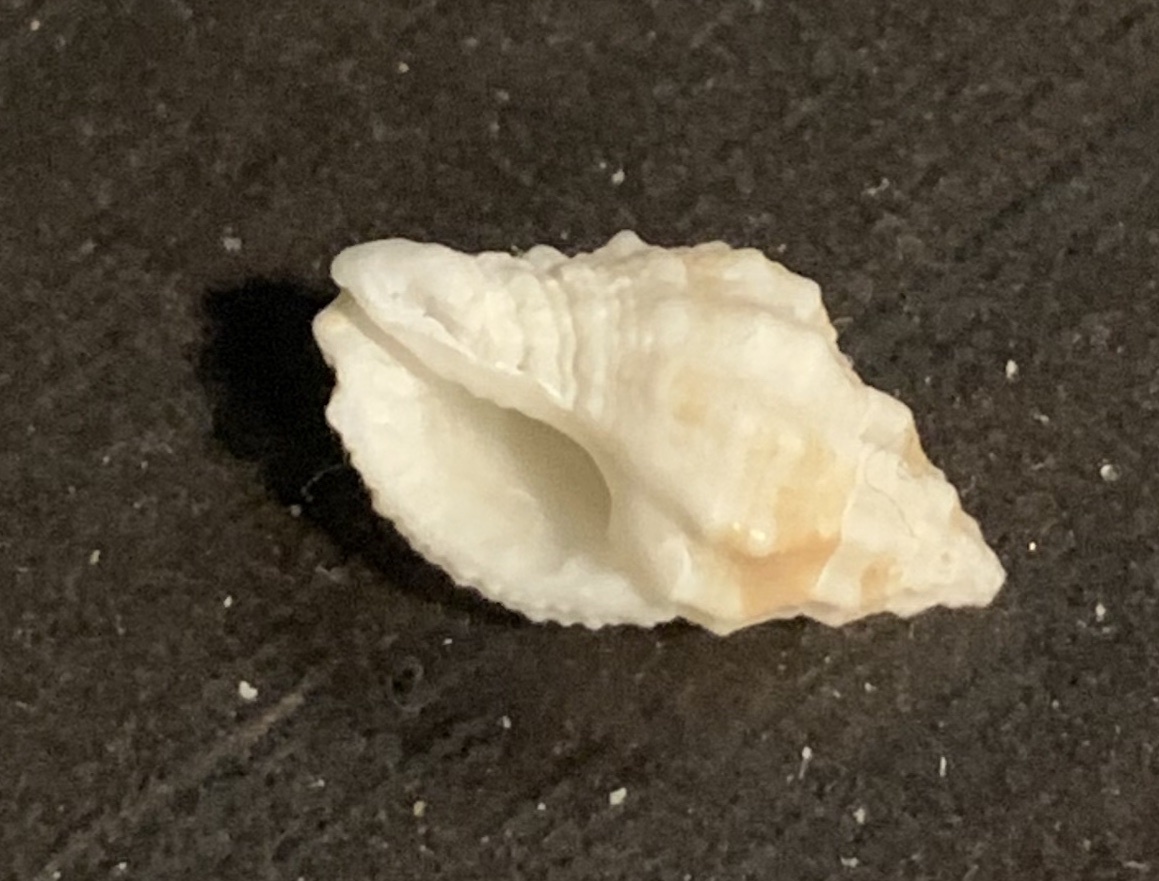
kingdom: Animalia
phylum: Mollusca
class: Gastropoda
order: Neogastropoda
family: Muricidae
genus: Pascula
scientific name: Pascula muricata
